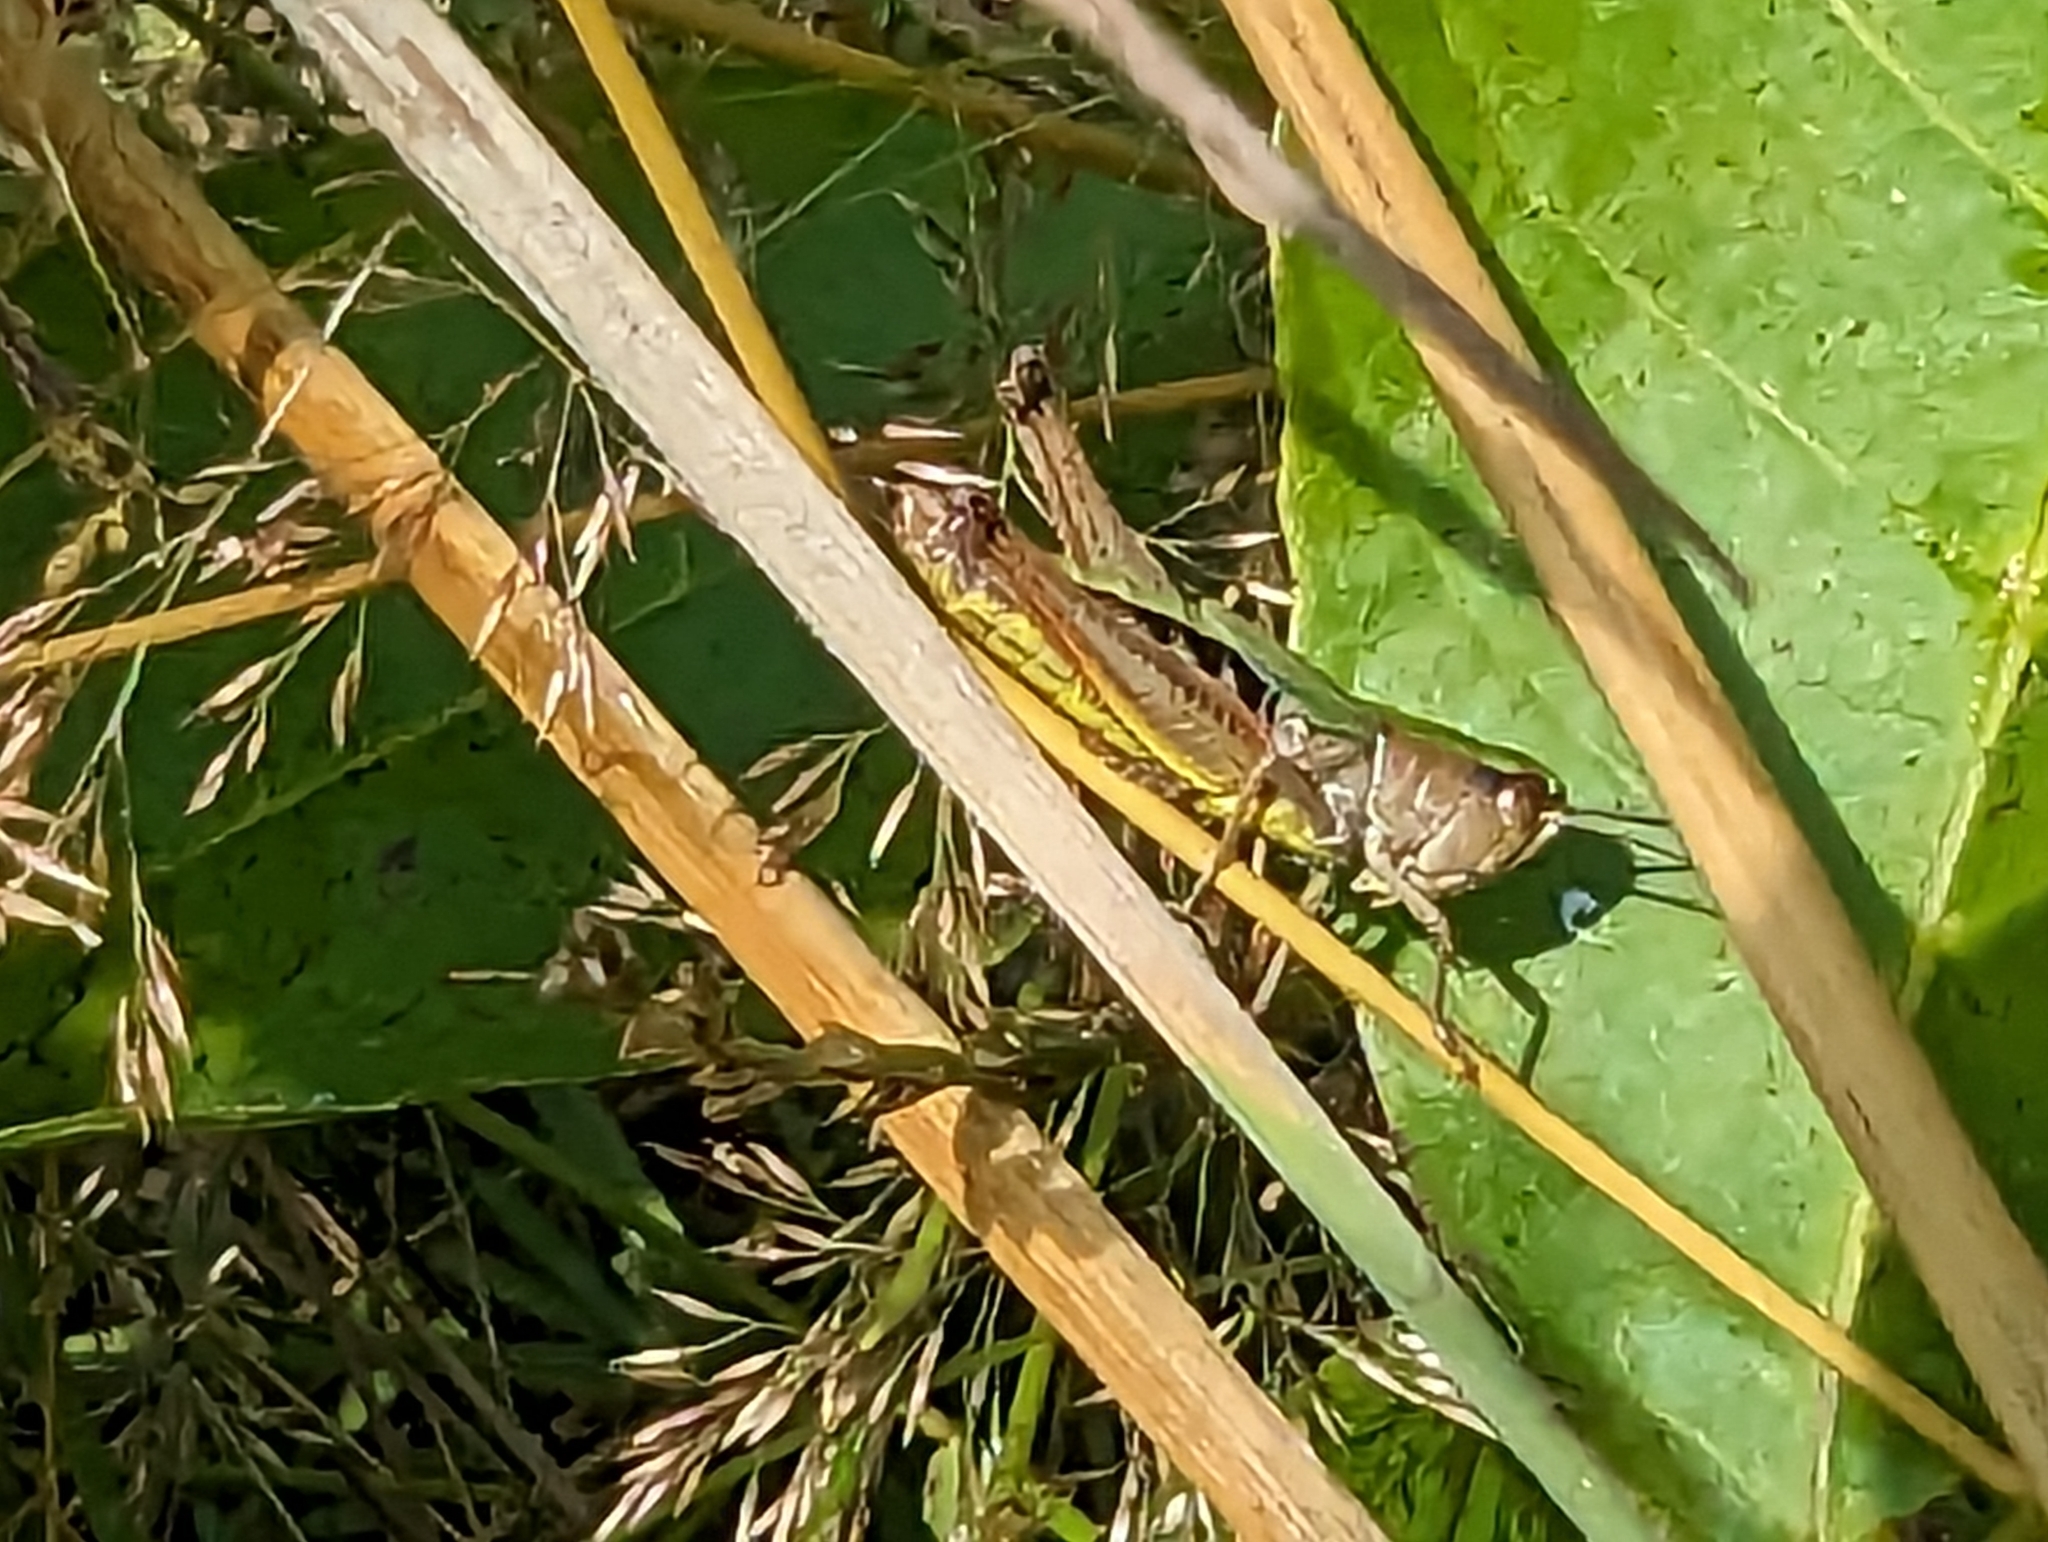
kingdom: Animalia
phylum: Arthropoda
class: Insecta
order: Orthoptera
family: Acrididae
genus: Pseudochorthippus
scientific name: Pseudochorthippus parallelus
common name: Meadow grasshopper
